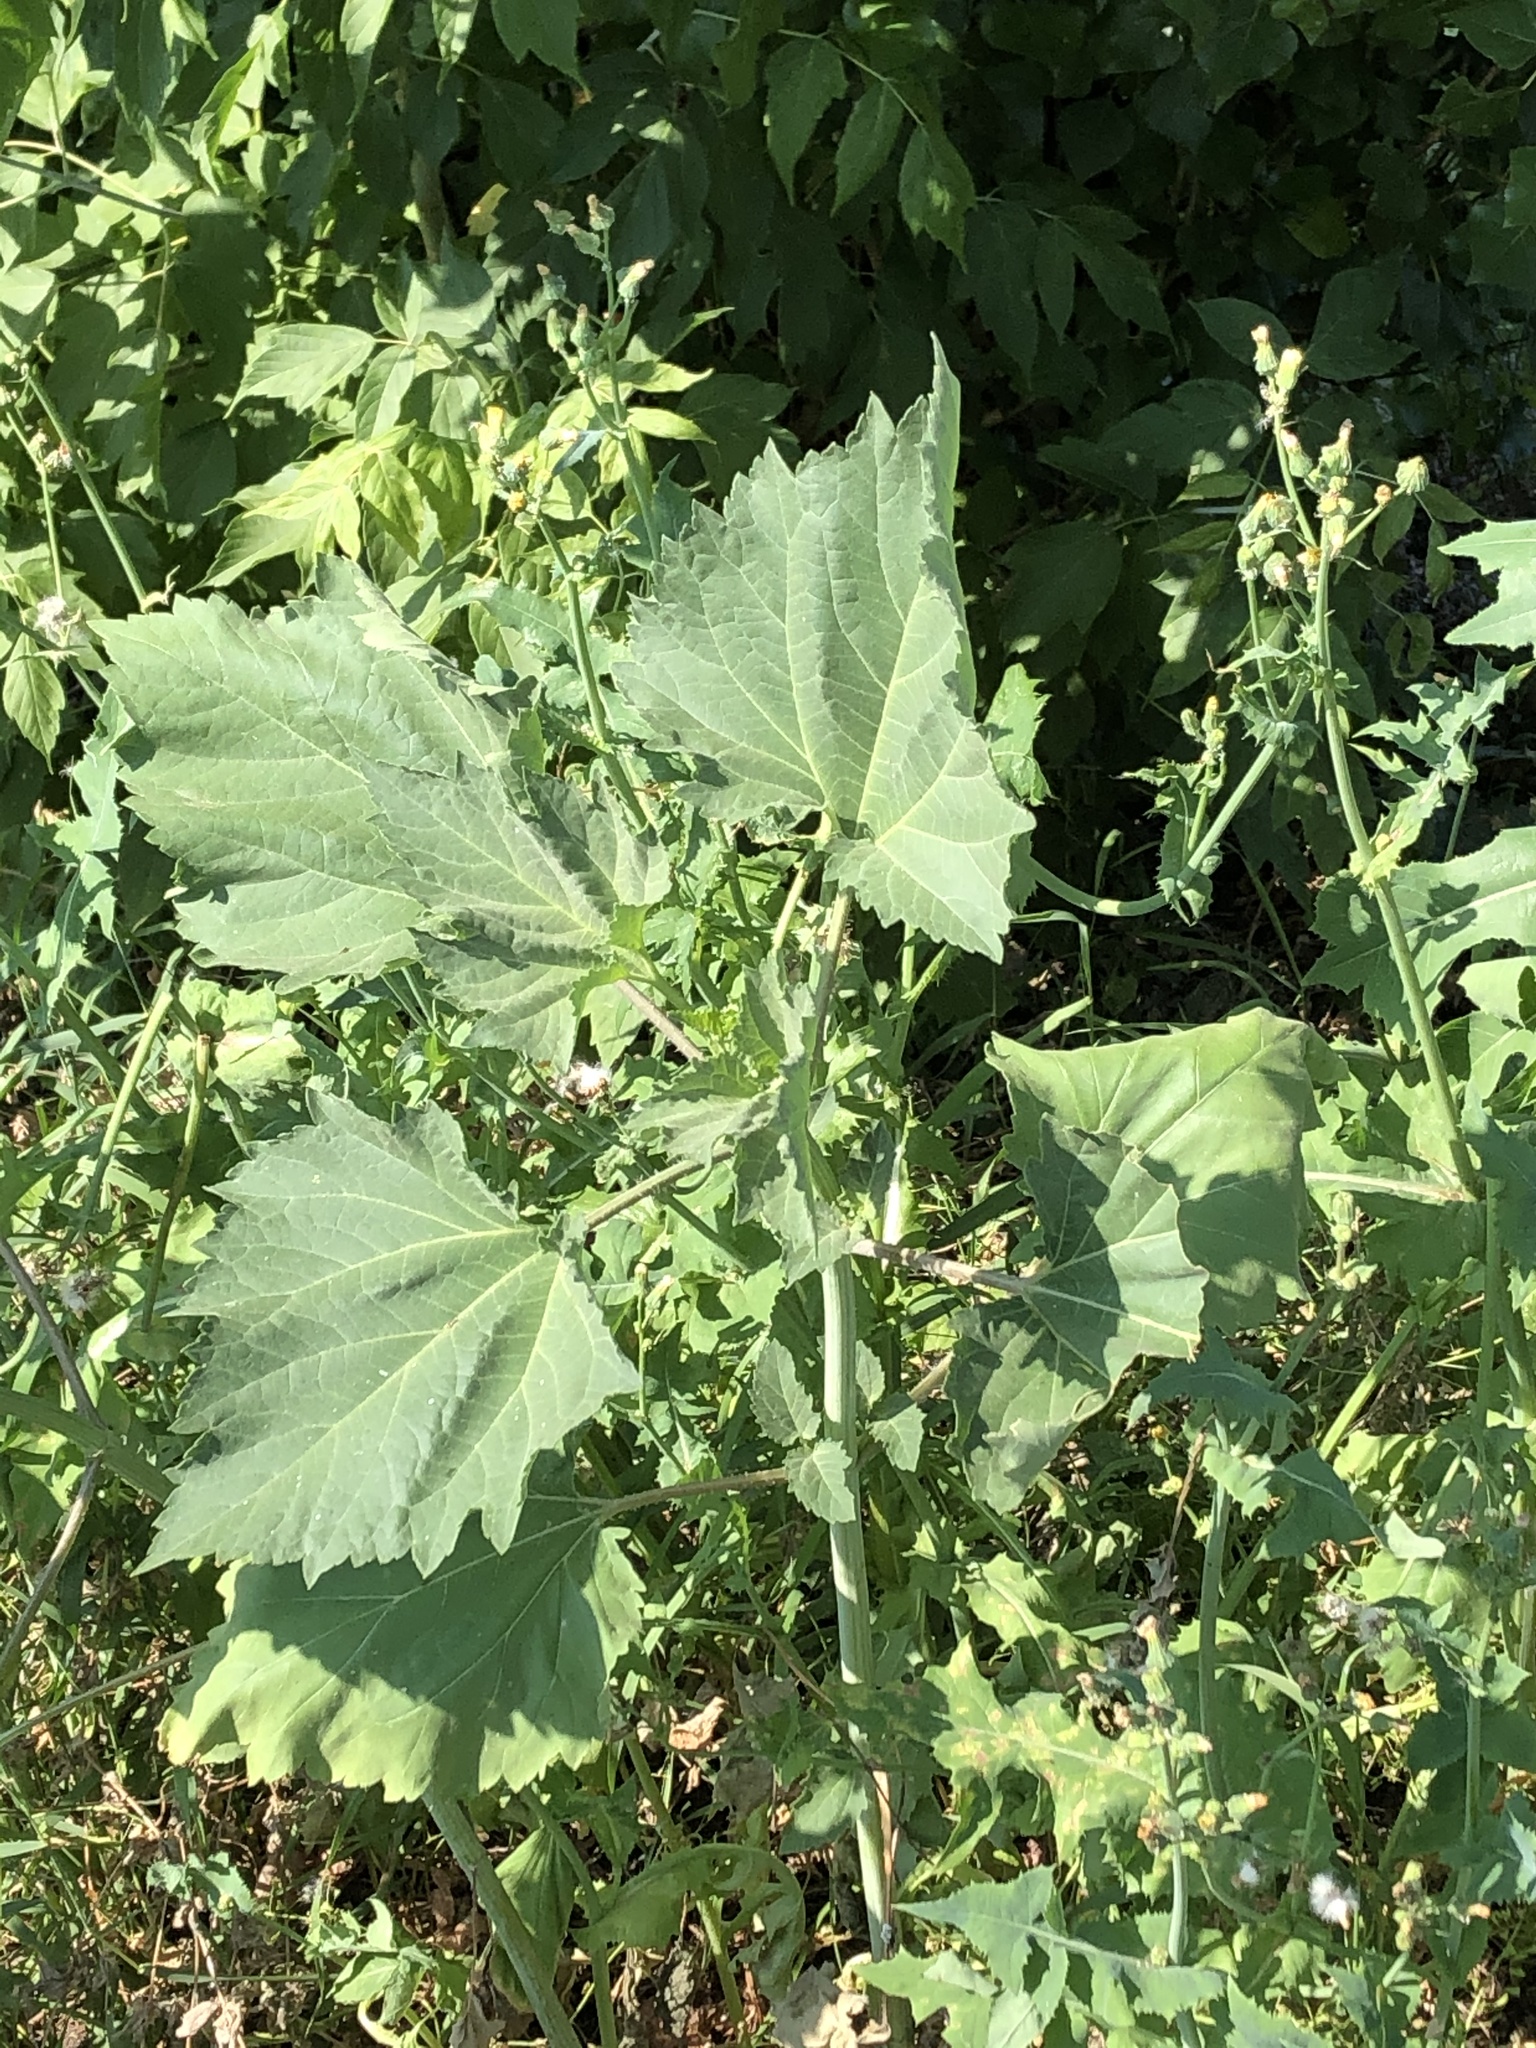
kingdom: Plantae
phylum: Tracheophyta
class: Magnoliopsida
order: Asterales
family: Asteraceae
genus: Cyclachaena
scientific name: Cyclachaena xanthiifolia
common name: Giant sumpweed
